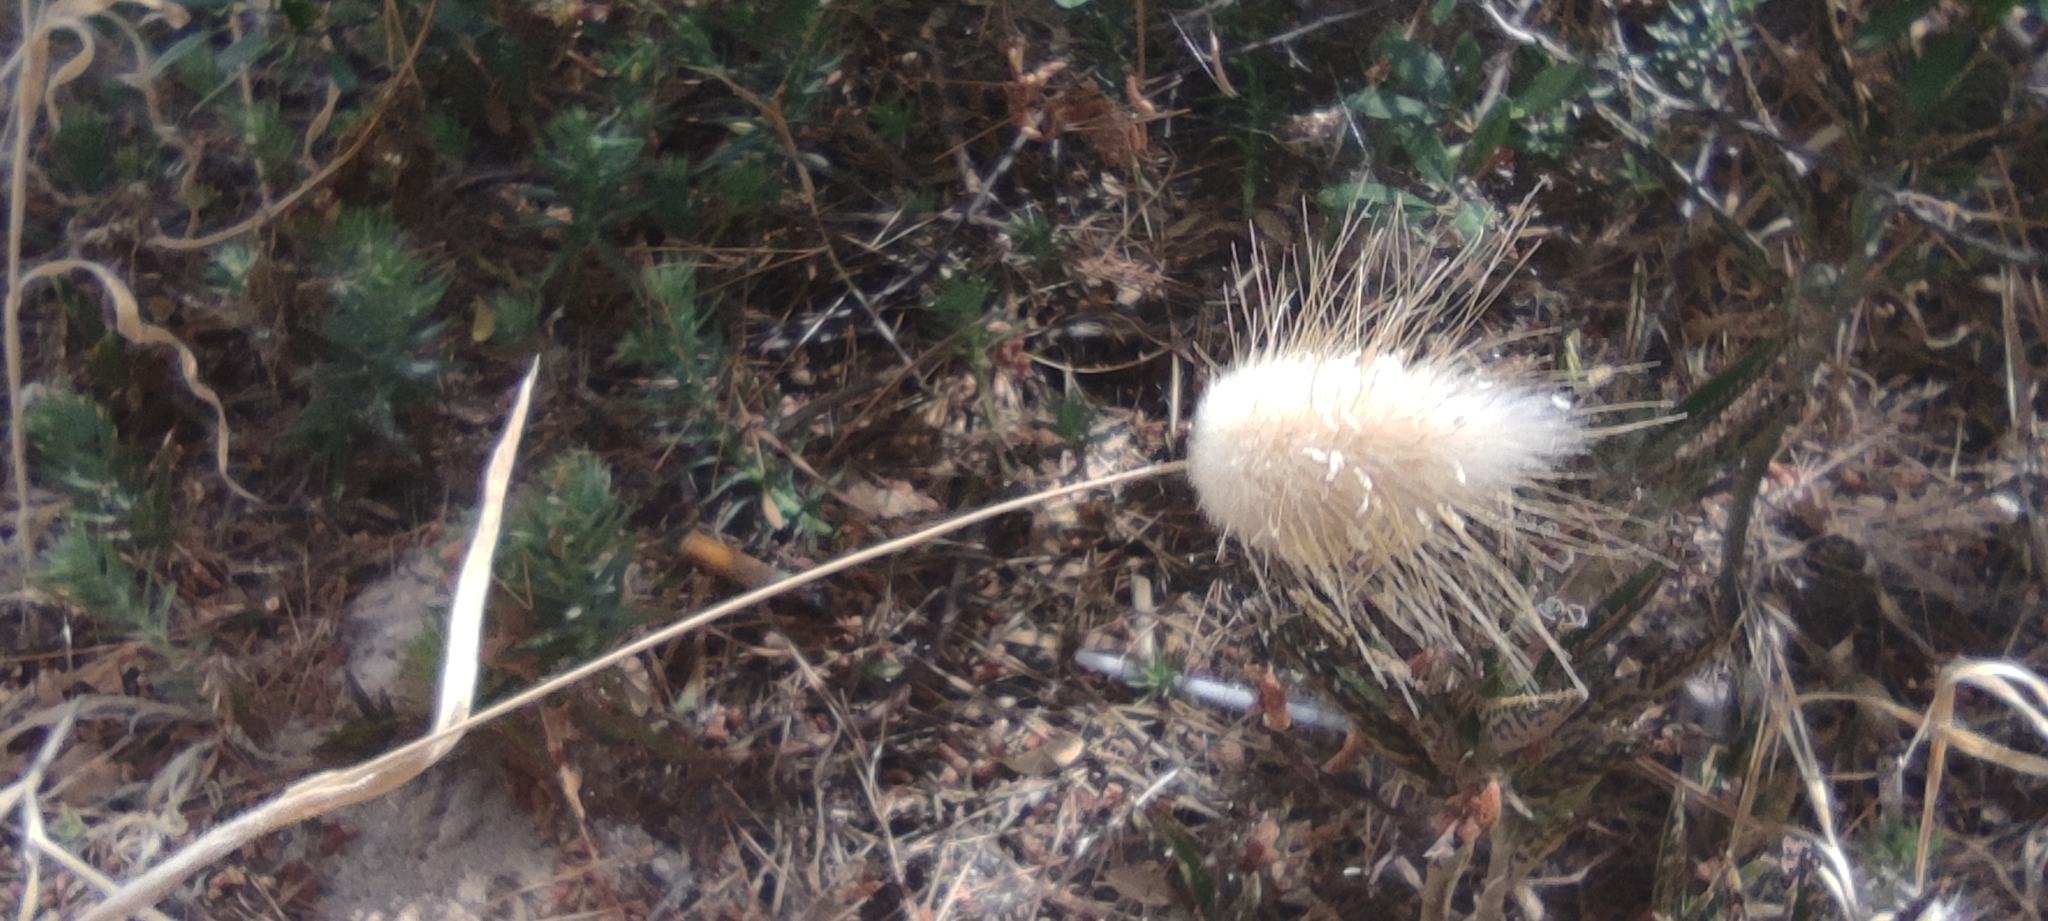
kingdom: Plantae
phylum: Tracheophyta
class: Liliopsida
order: Poales
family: Poaceae
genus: Lagurus
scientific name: Lagurus ovatus
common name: Hare's-tail
